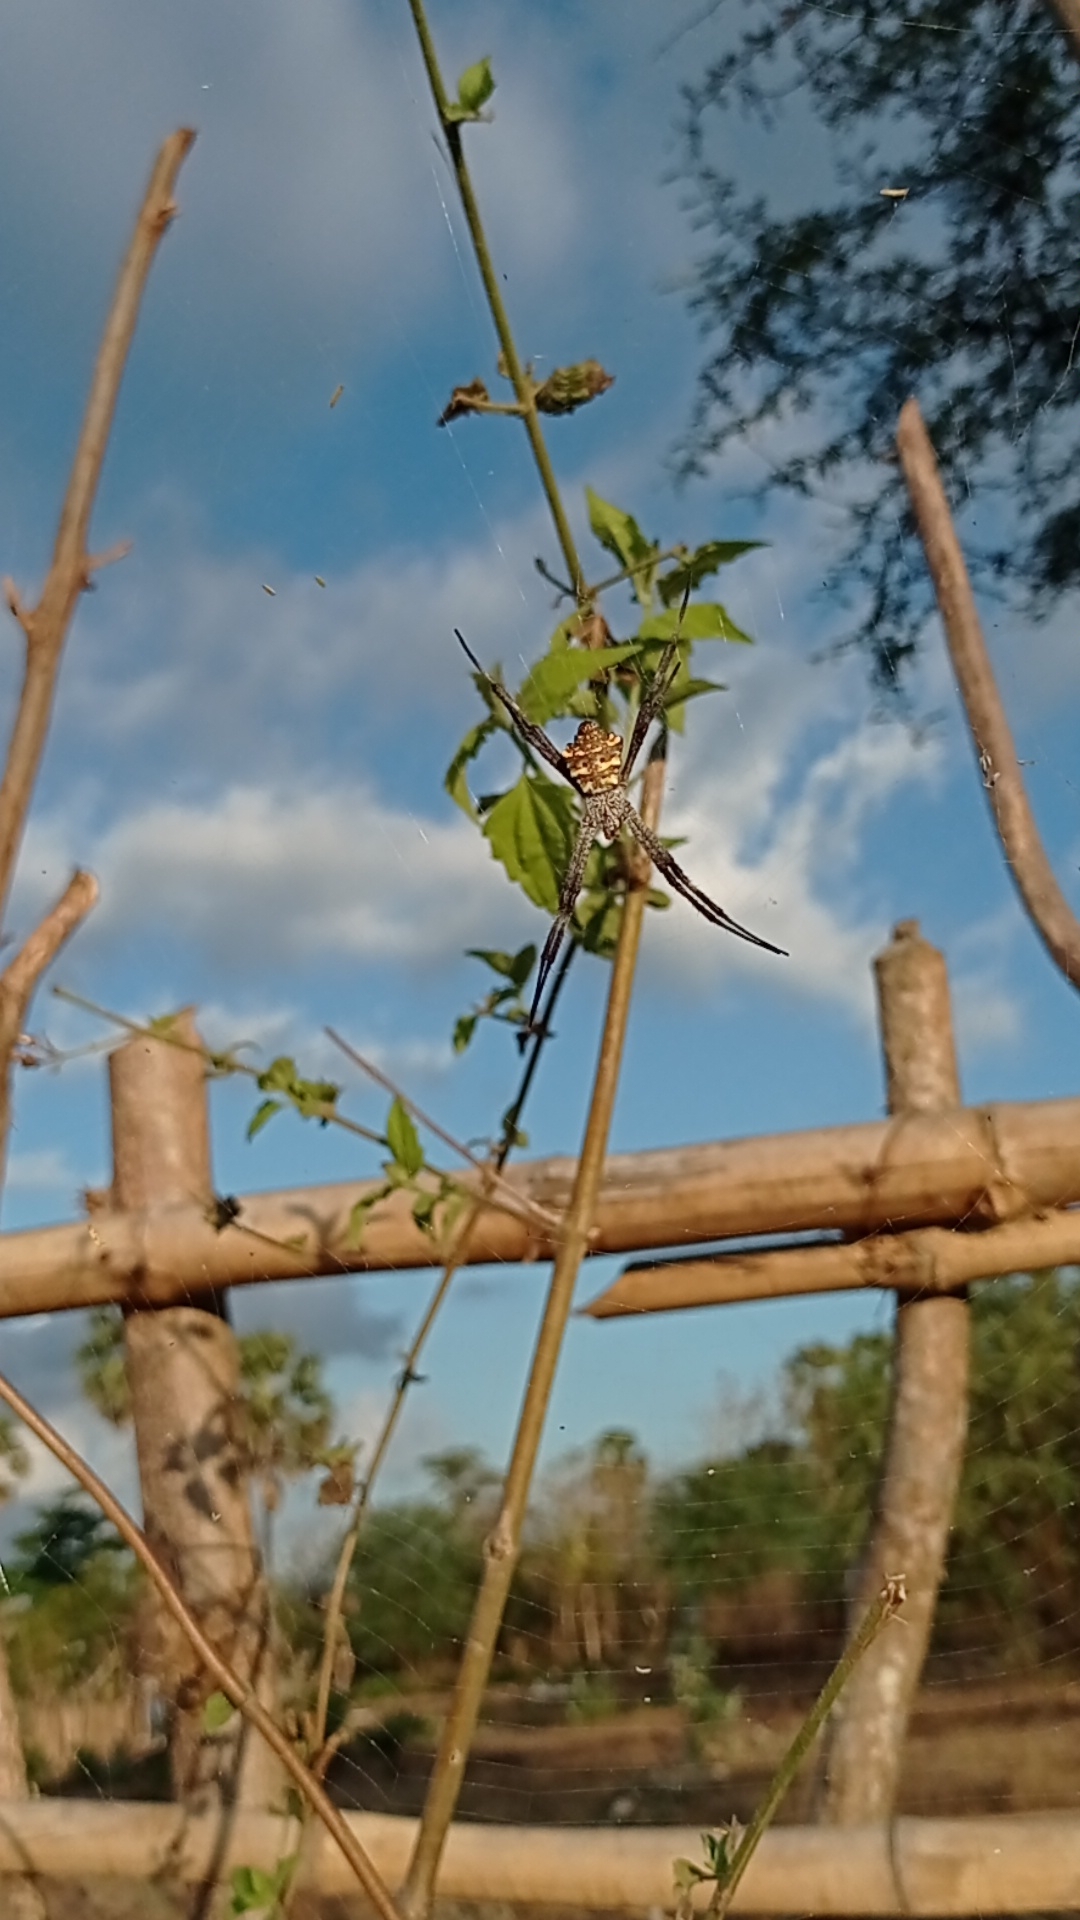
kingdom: Animalia
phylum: Arthropoda
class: Arachnida
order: Araneae
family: Araneidae
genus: Argiope
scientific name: Argiope modesta
